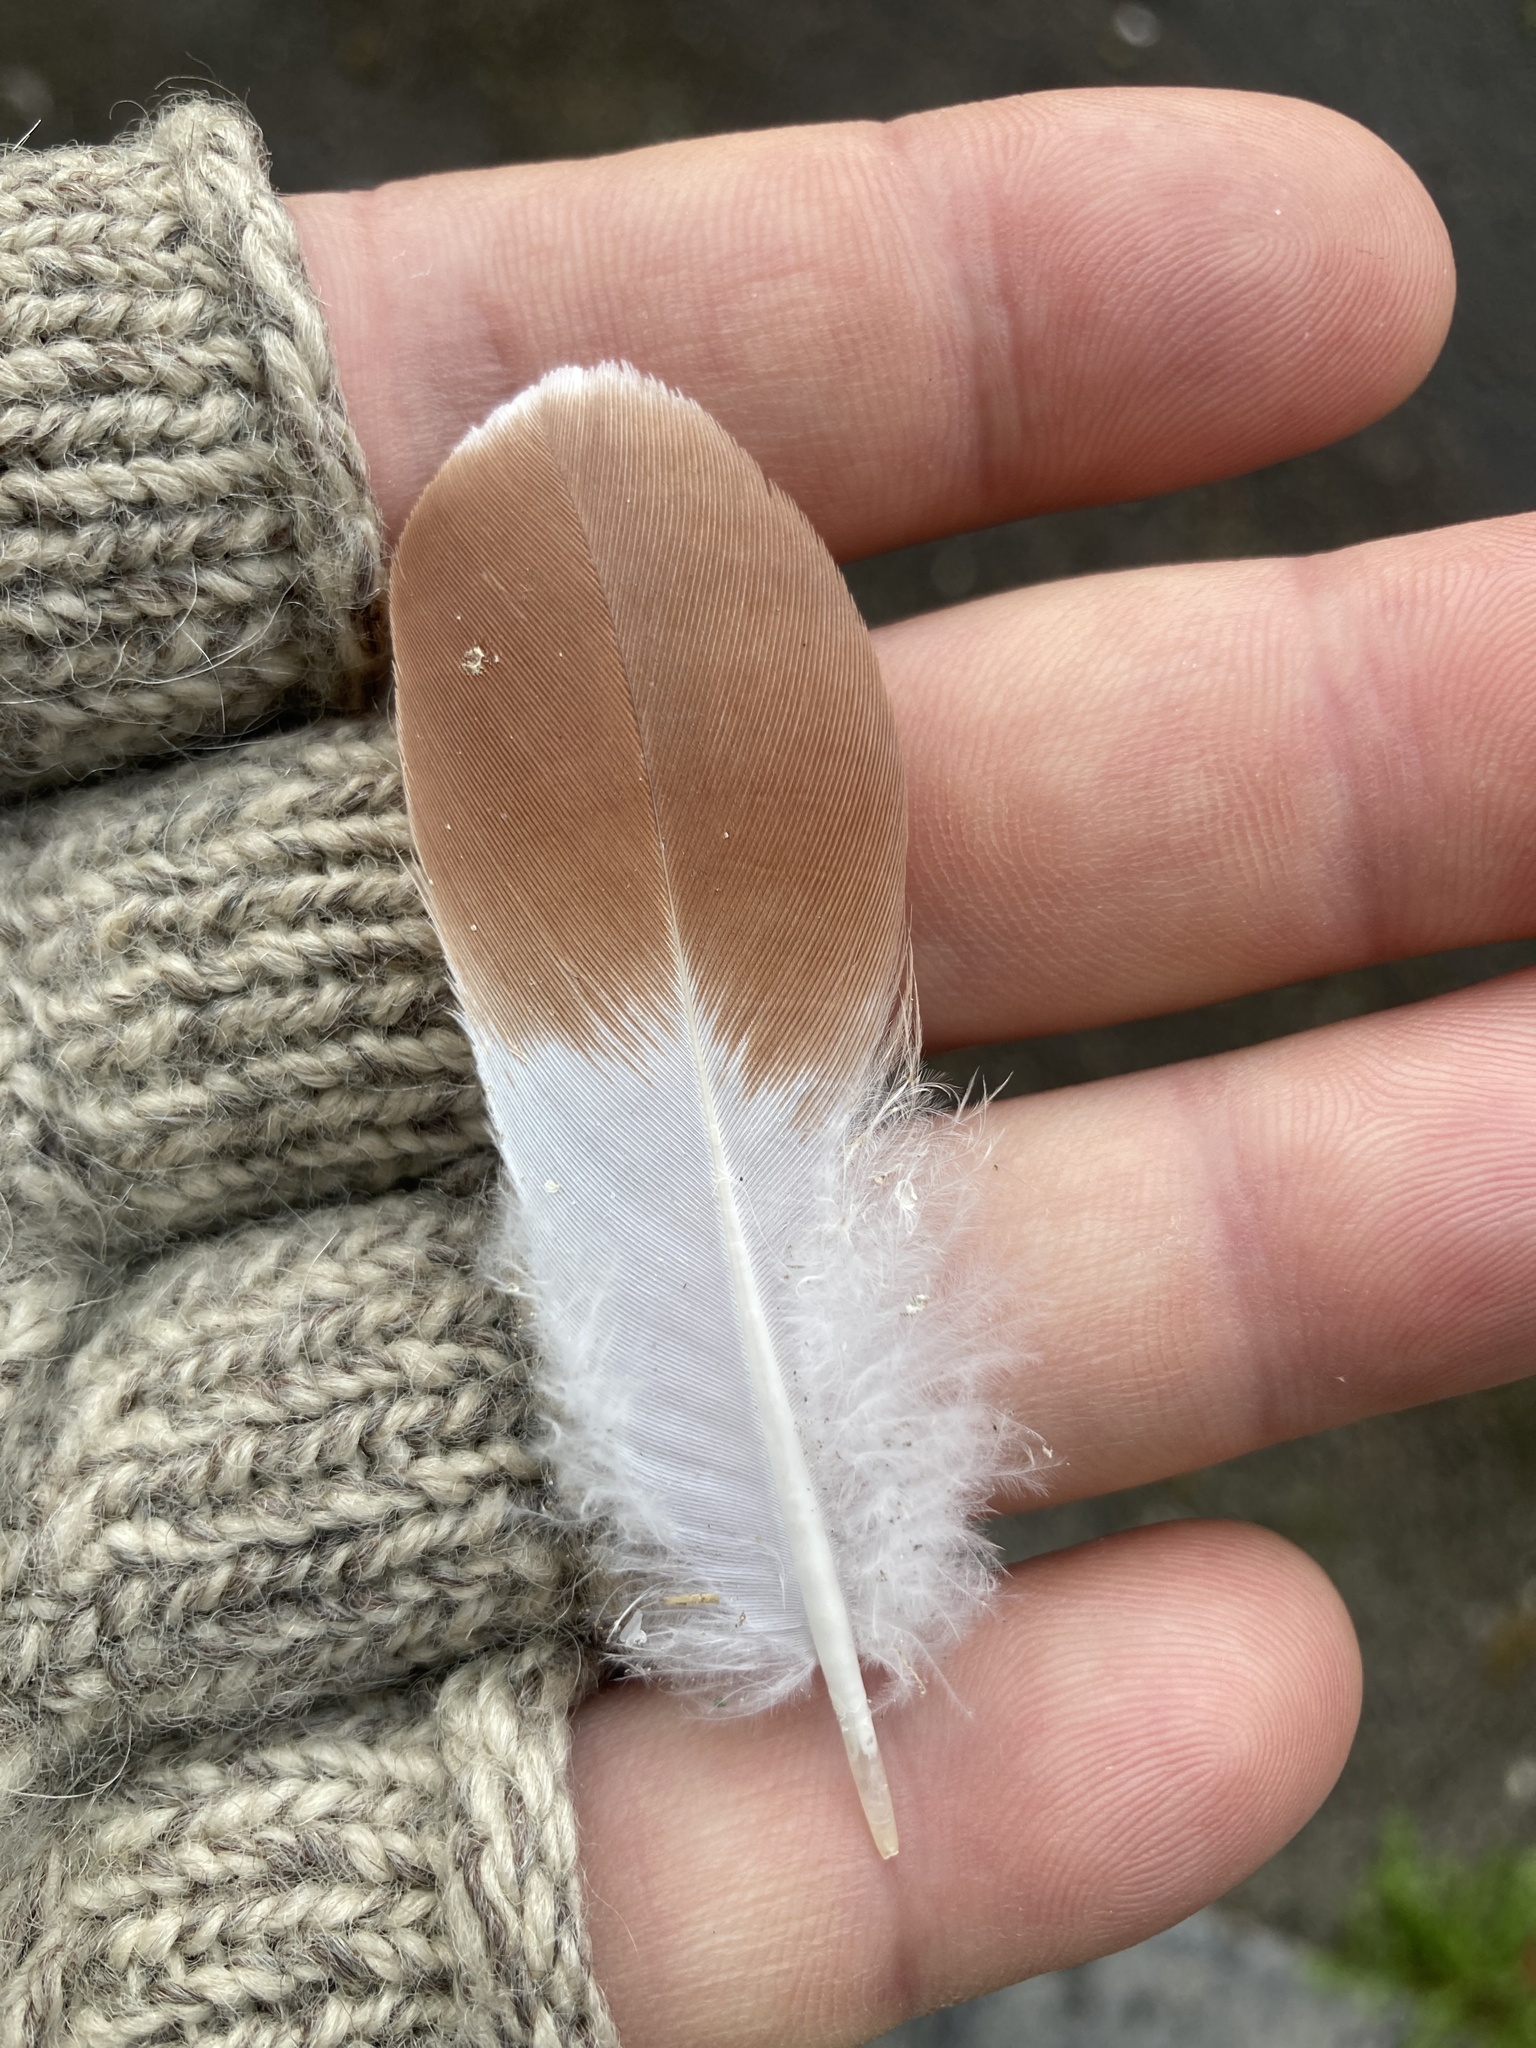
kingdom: Animalia
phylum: Chordata
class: Aves
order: Columbiformes
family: Columbidae
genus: Columba
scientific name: Columba livia
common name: Rock pigeon
